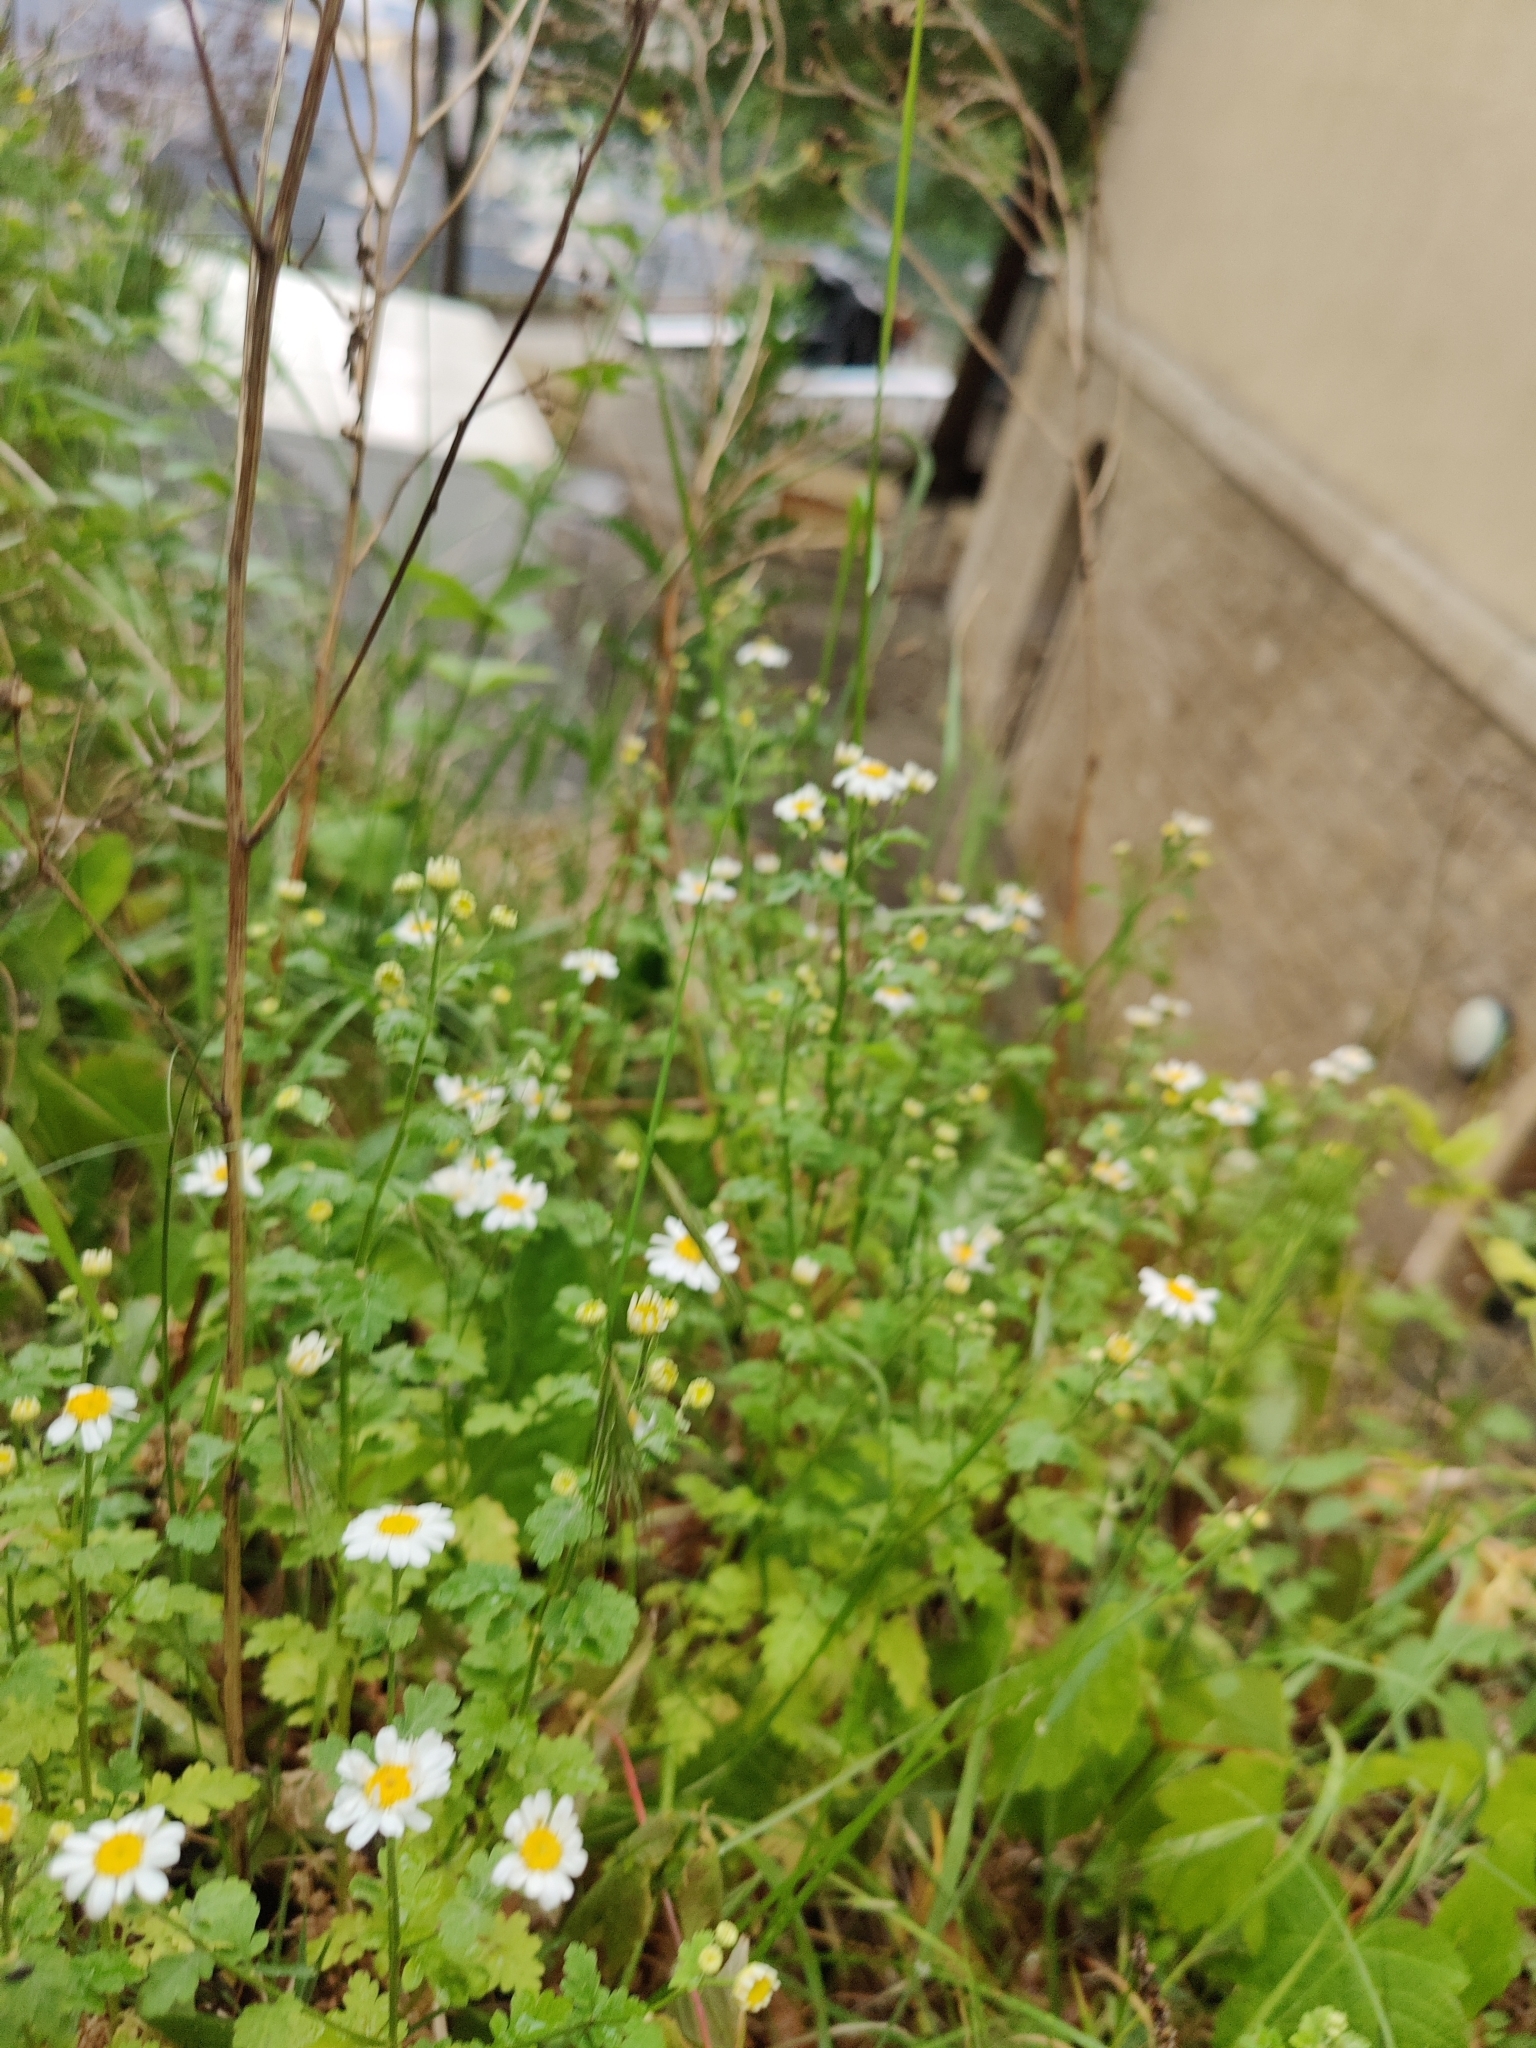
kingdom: Plantae
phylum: Tracheophyta
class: Magnoliopsida
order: Asterales
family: Asteraceae
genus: Tanacetum
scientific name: Tanacetum parthenium
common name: Feverfew
